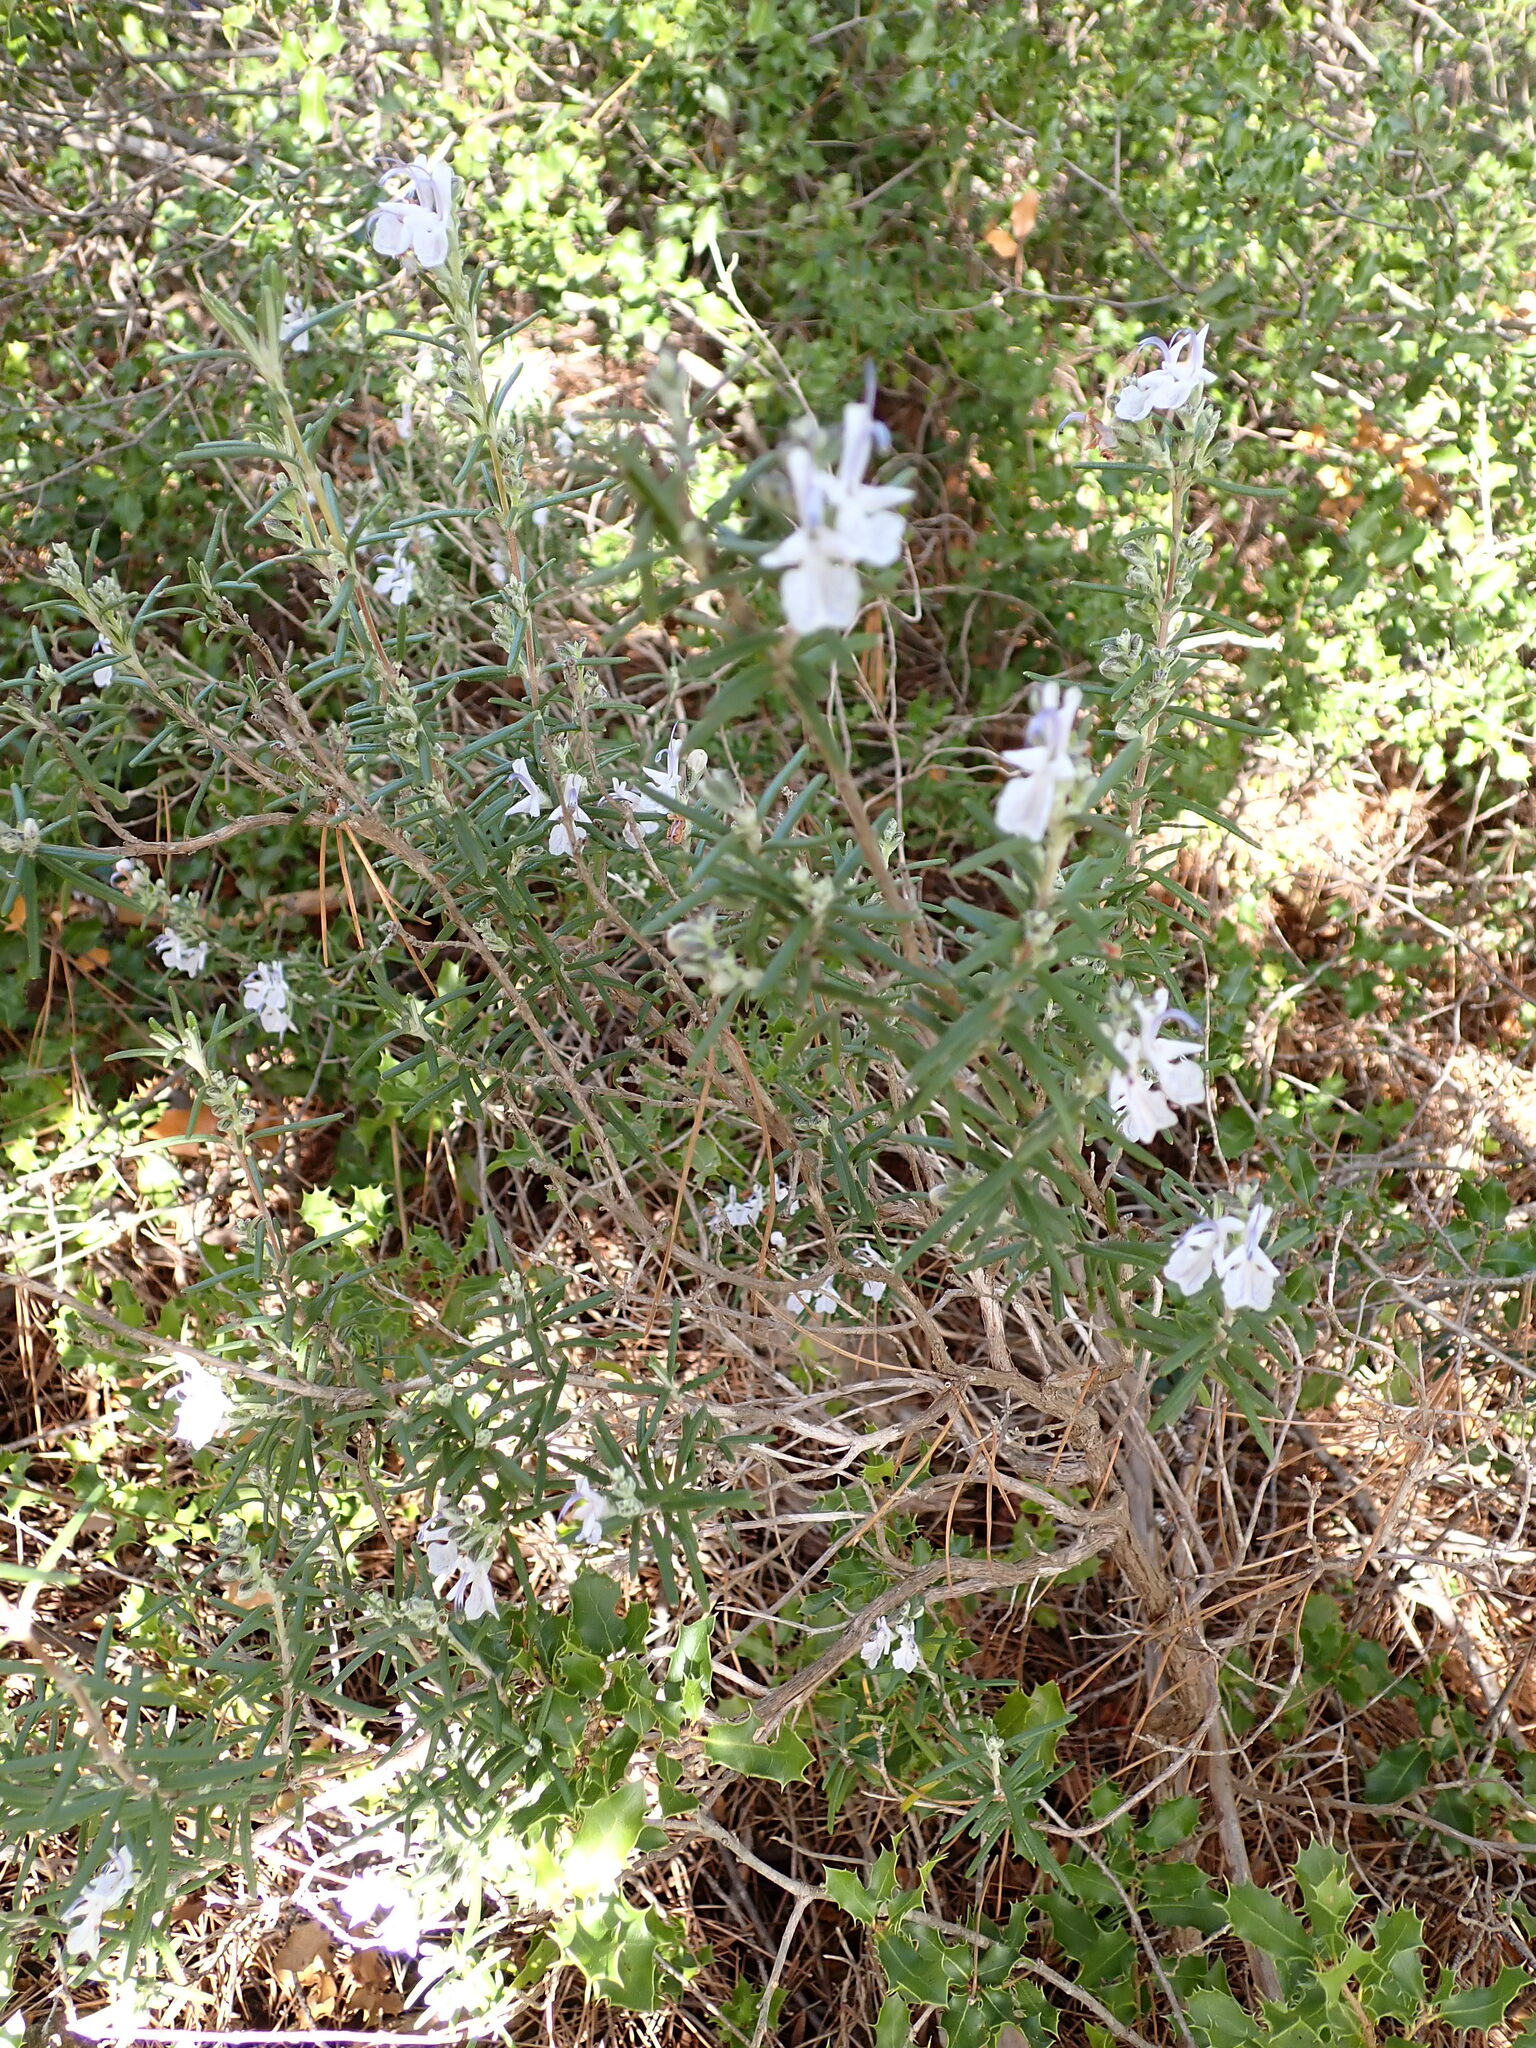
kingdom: Plantae
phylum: Tracheophyta
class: Magnoliopsida
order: Lamiales
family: Lamiaceae
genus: Salvia
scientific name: Salvia rosmarinus
